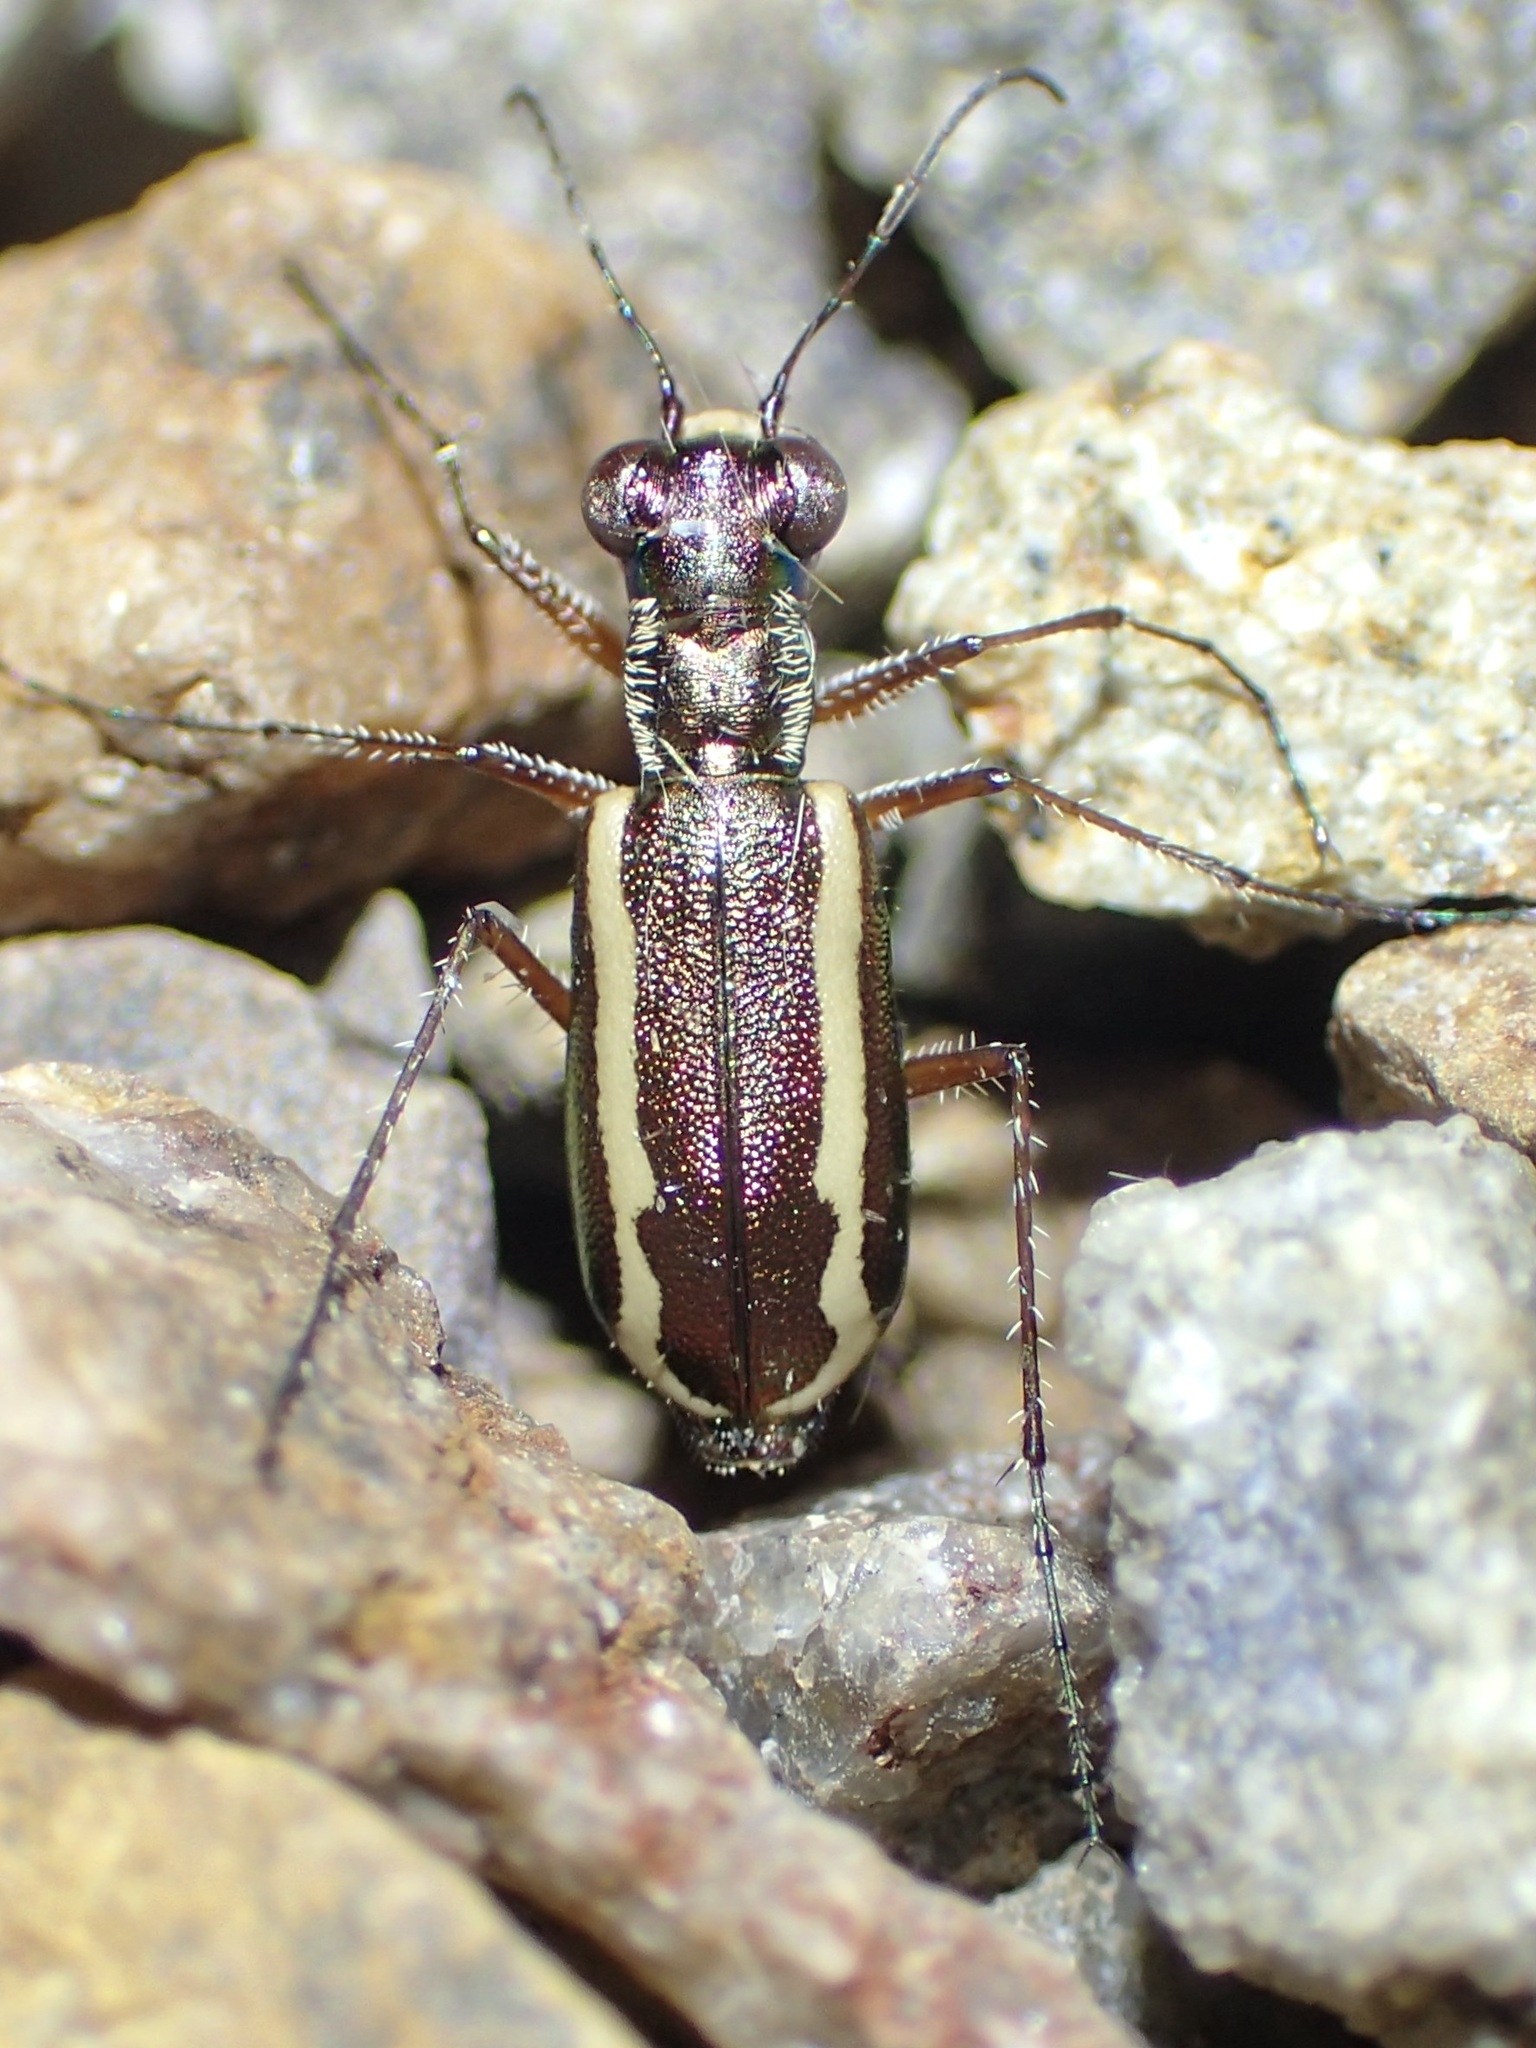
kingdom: Animalia
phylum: Arthropoda
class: Insecta
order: Coleoptera
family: Carabidae
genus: Cylindera
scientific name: Cylindera lemniscata
